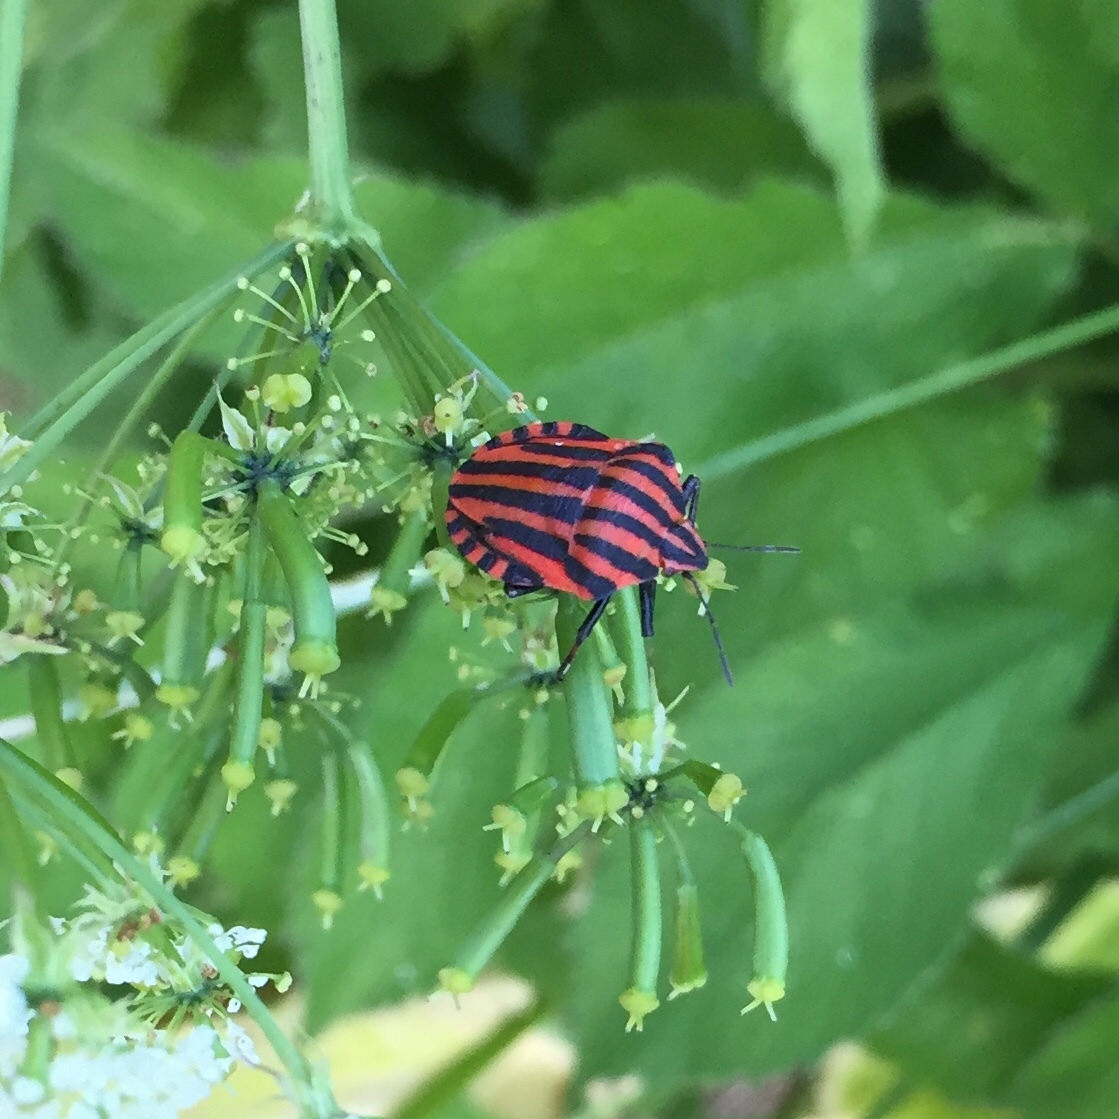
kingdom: Animalia
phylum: Arthropoda
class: Insecta
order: Hemiptera
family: Pentatomidae
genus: Graphosoma
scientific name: Graphosoma italicum
